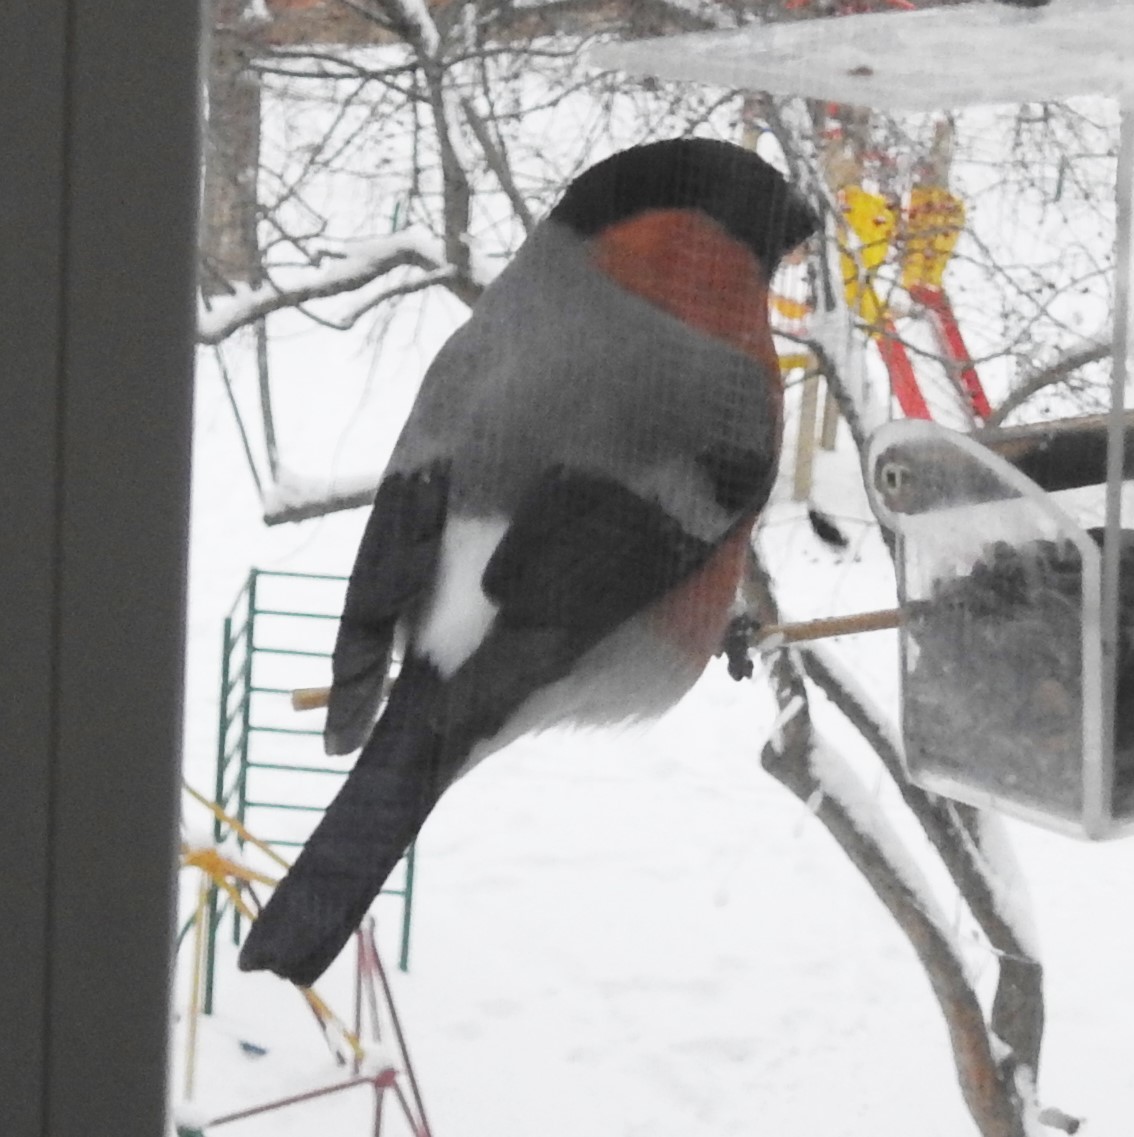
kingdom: Animalia
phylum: Chordata
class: Aves
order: Passeriformes
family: Fringillidae
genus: Pyrrhula
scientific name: Pyrrhula pyrrhula
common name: Eurasian bullfinch
